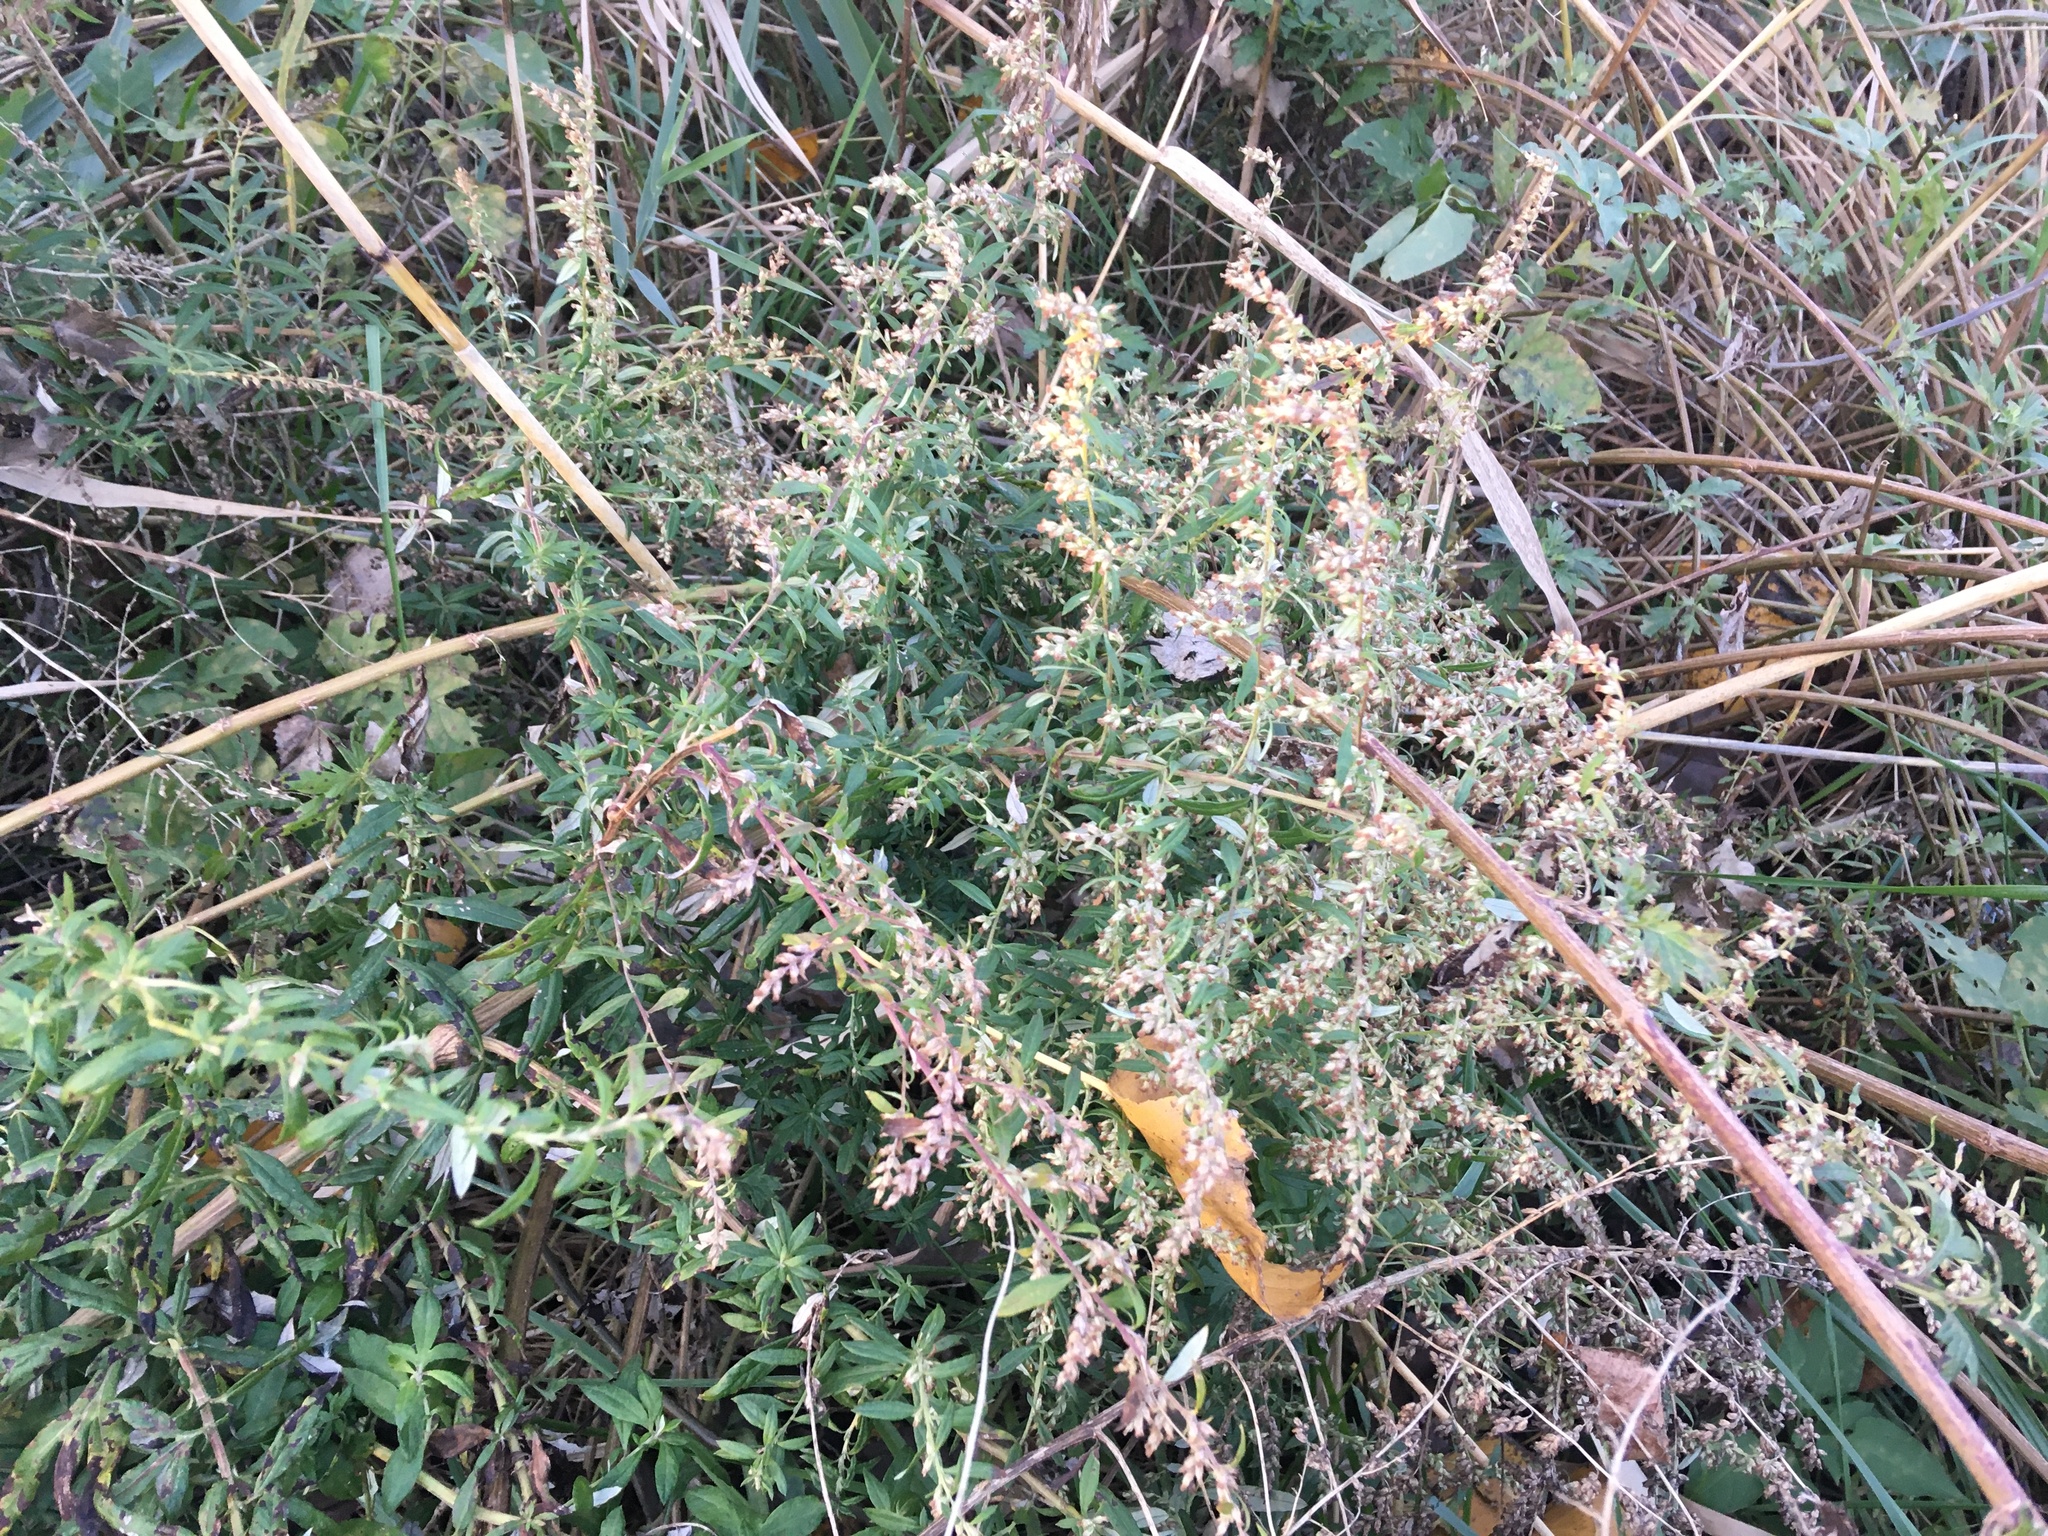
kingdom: Plantae
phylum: Tracheophyta
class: Magnoliopsida
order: Asterales
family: Asteraceae
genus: Artemisia
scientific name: Artemisia vulgaris
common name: Mugwort
